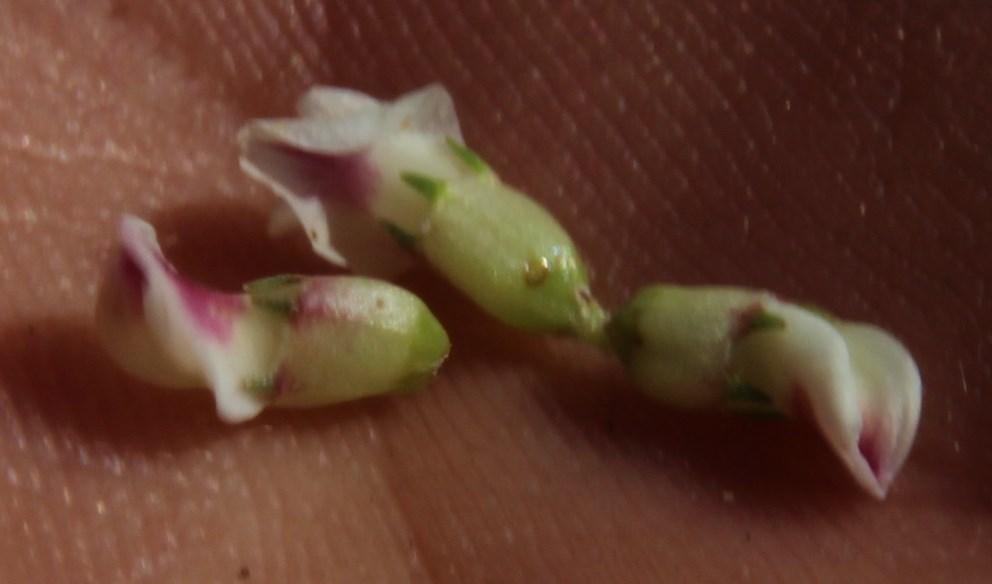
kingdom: Plantae
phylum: Tracheophyta
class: Magnoliopsida
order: Fabales
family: Fabaceae
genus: Aspalathus
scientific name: Aspalathus quartzicola
